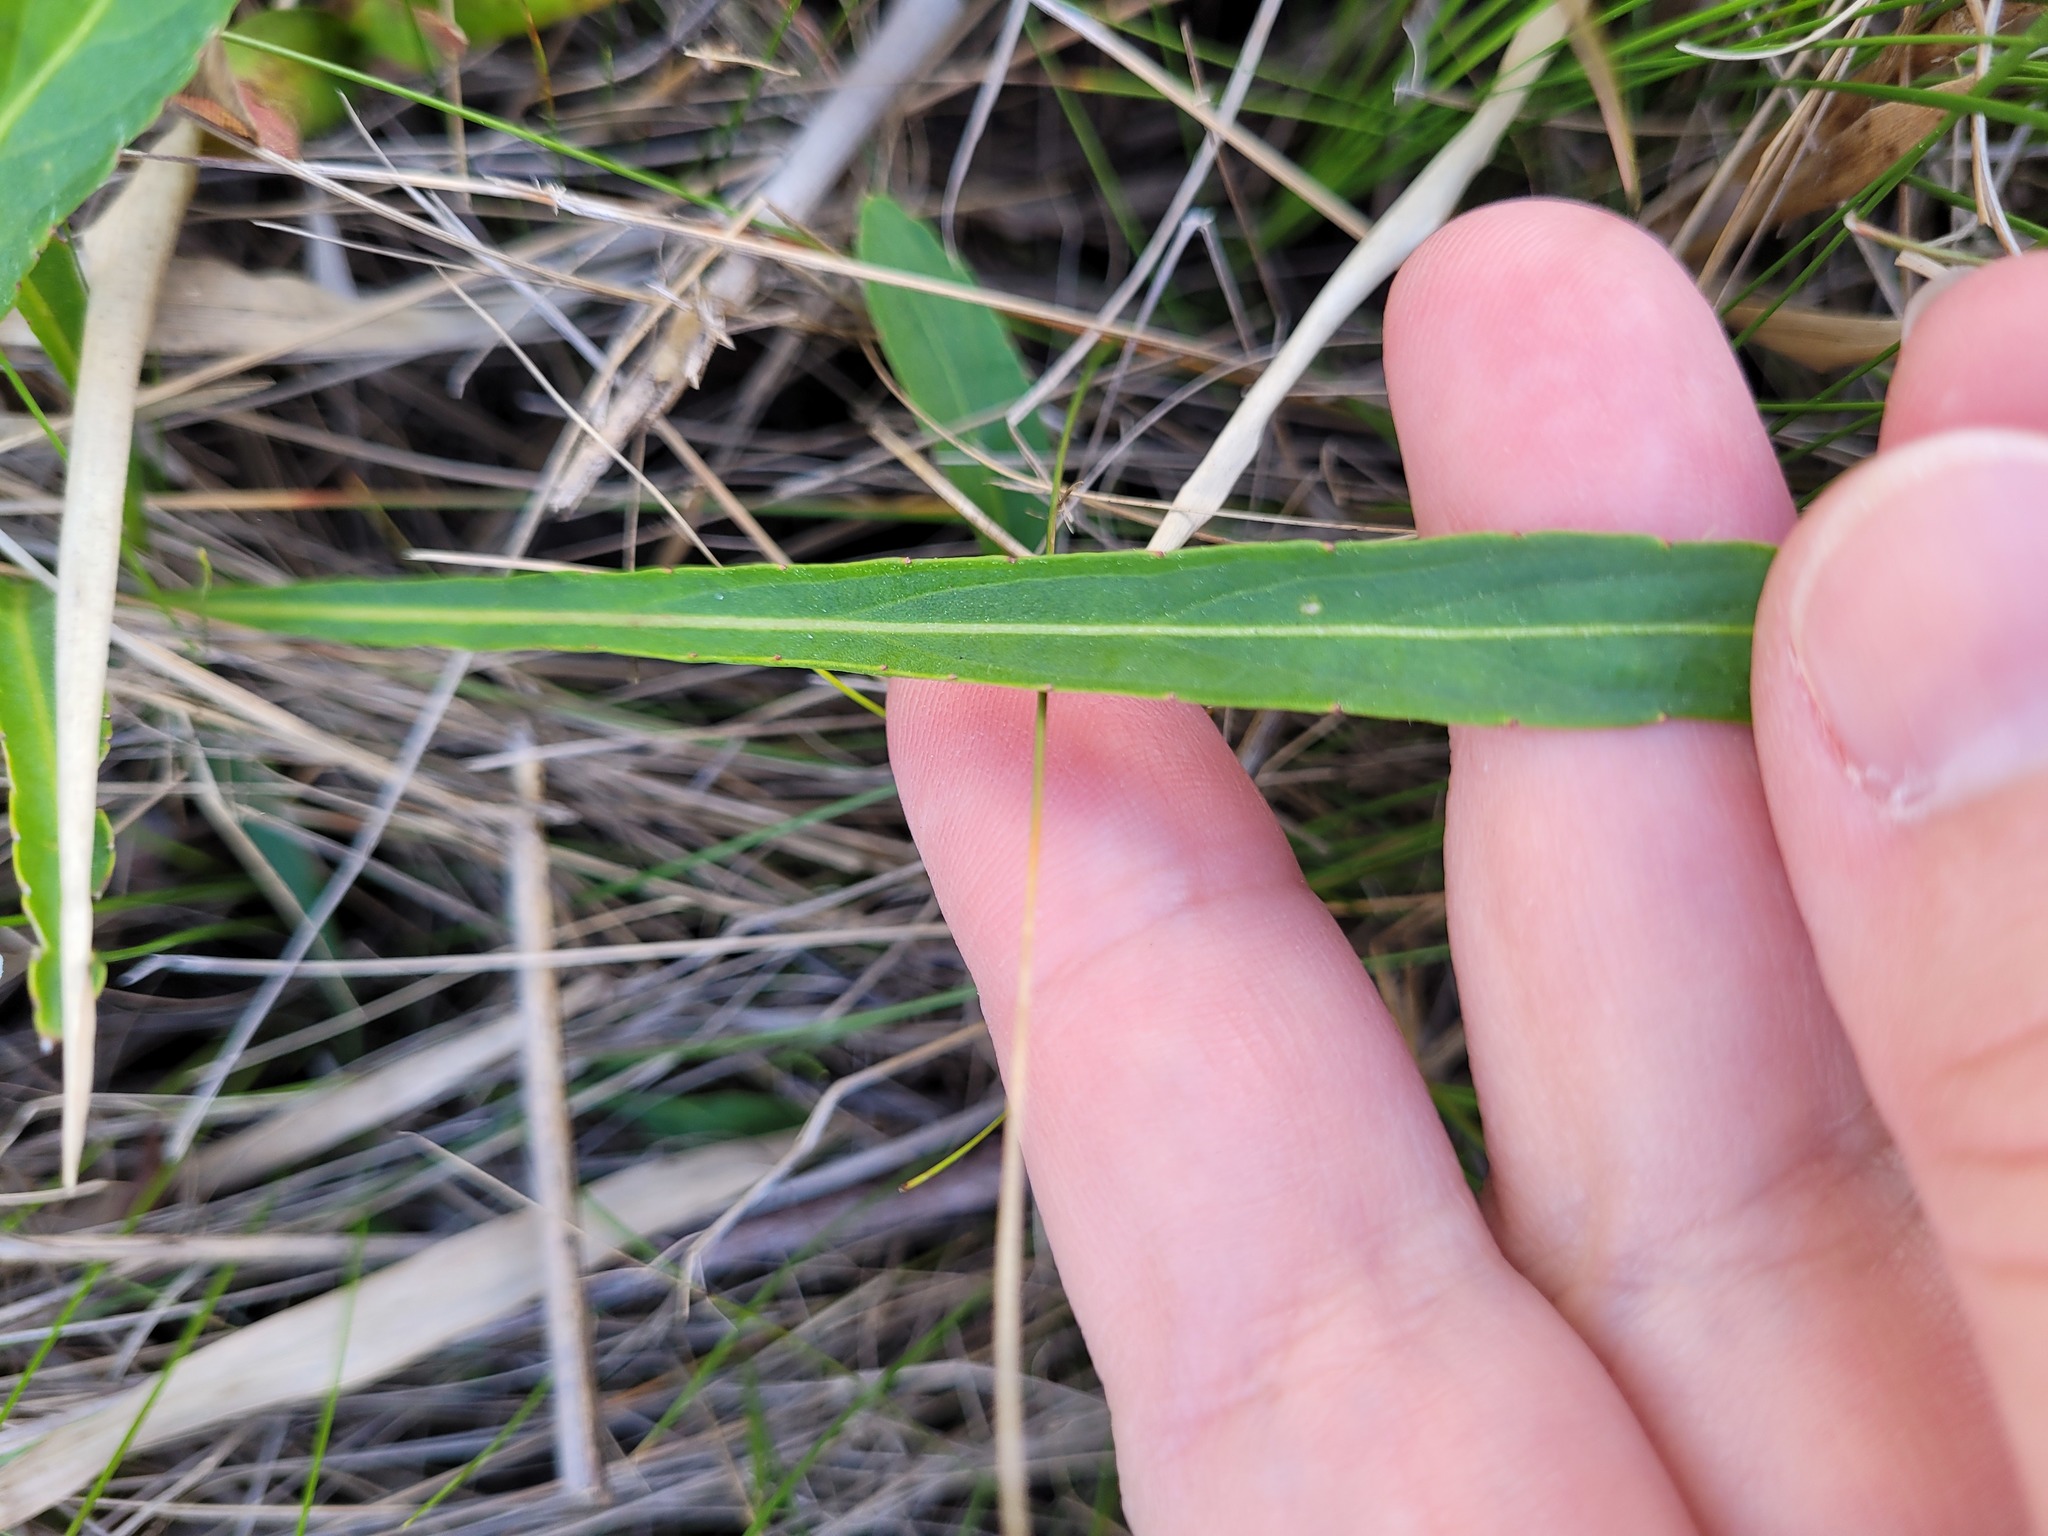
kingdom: Plantae
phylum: Tracheophyta
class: Magnoliopsida
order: Malpighiales
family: Violaceae
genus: Viola
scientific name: Viola lanceolata
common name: Bog white violet
